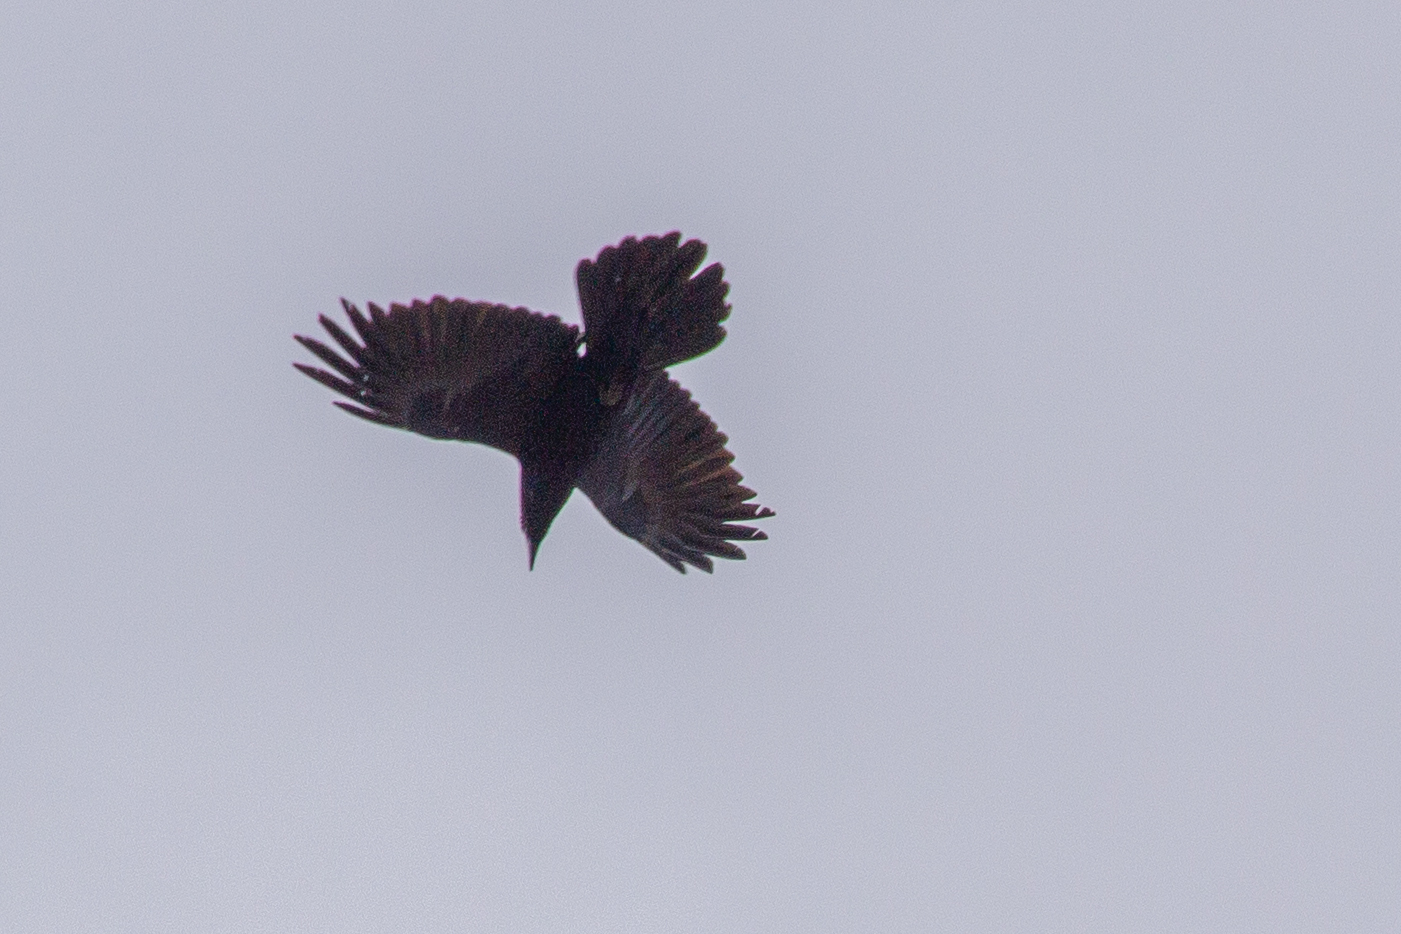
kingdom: Animalia
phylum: Chordata
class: Aves
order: Passeriformes
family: Corvidae
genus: Corvus
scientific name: Corvus corax
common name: Common raven
